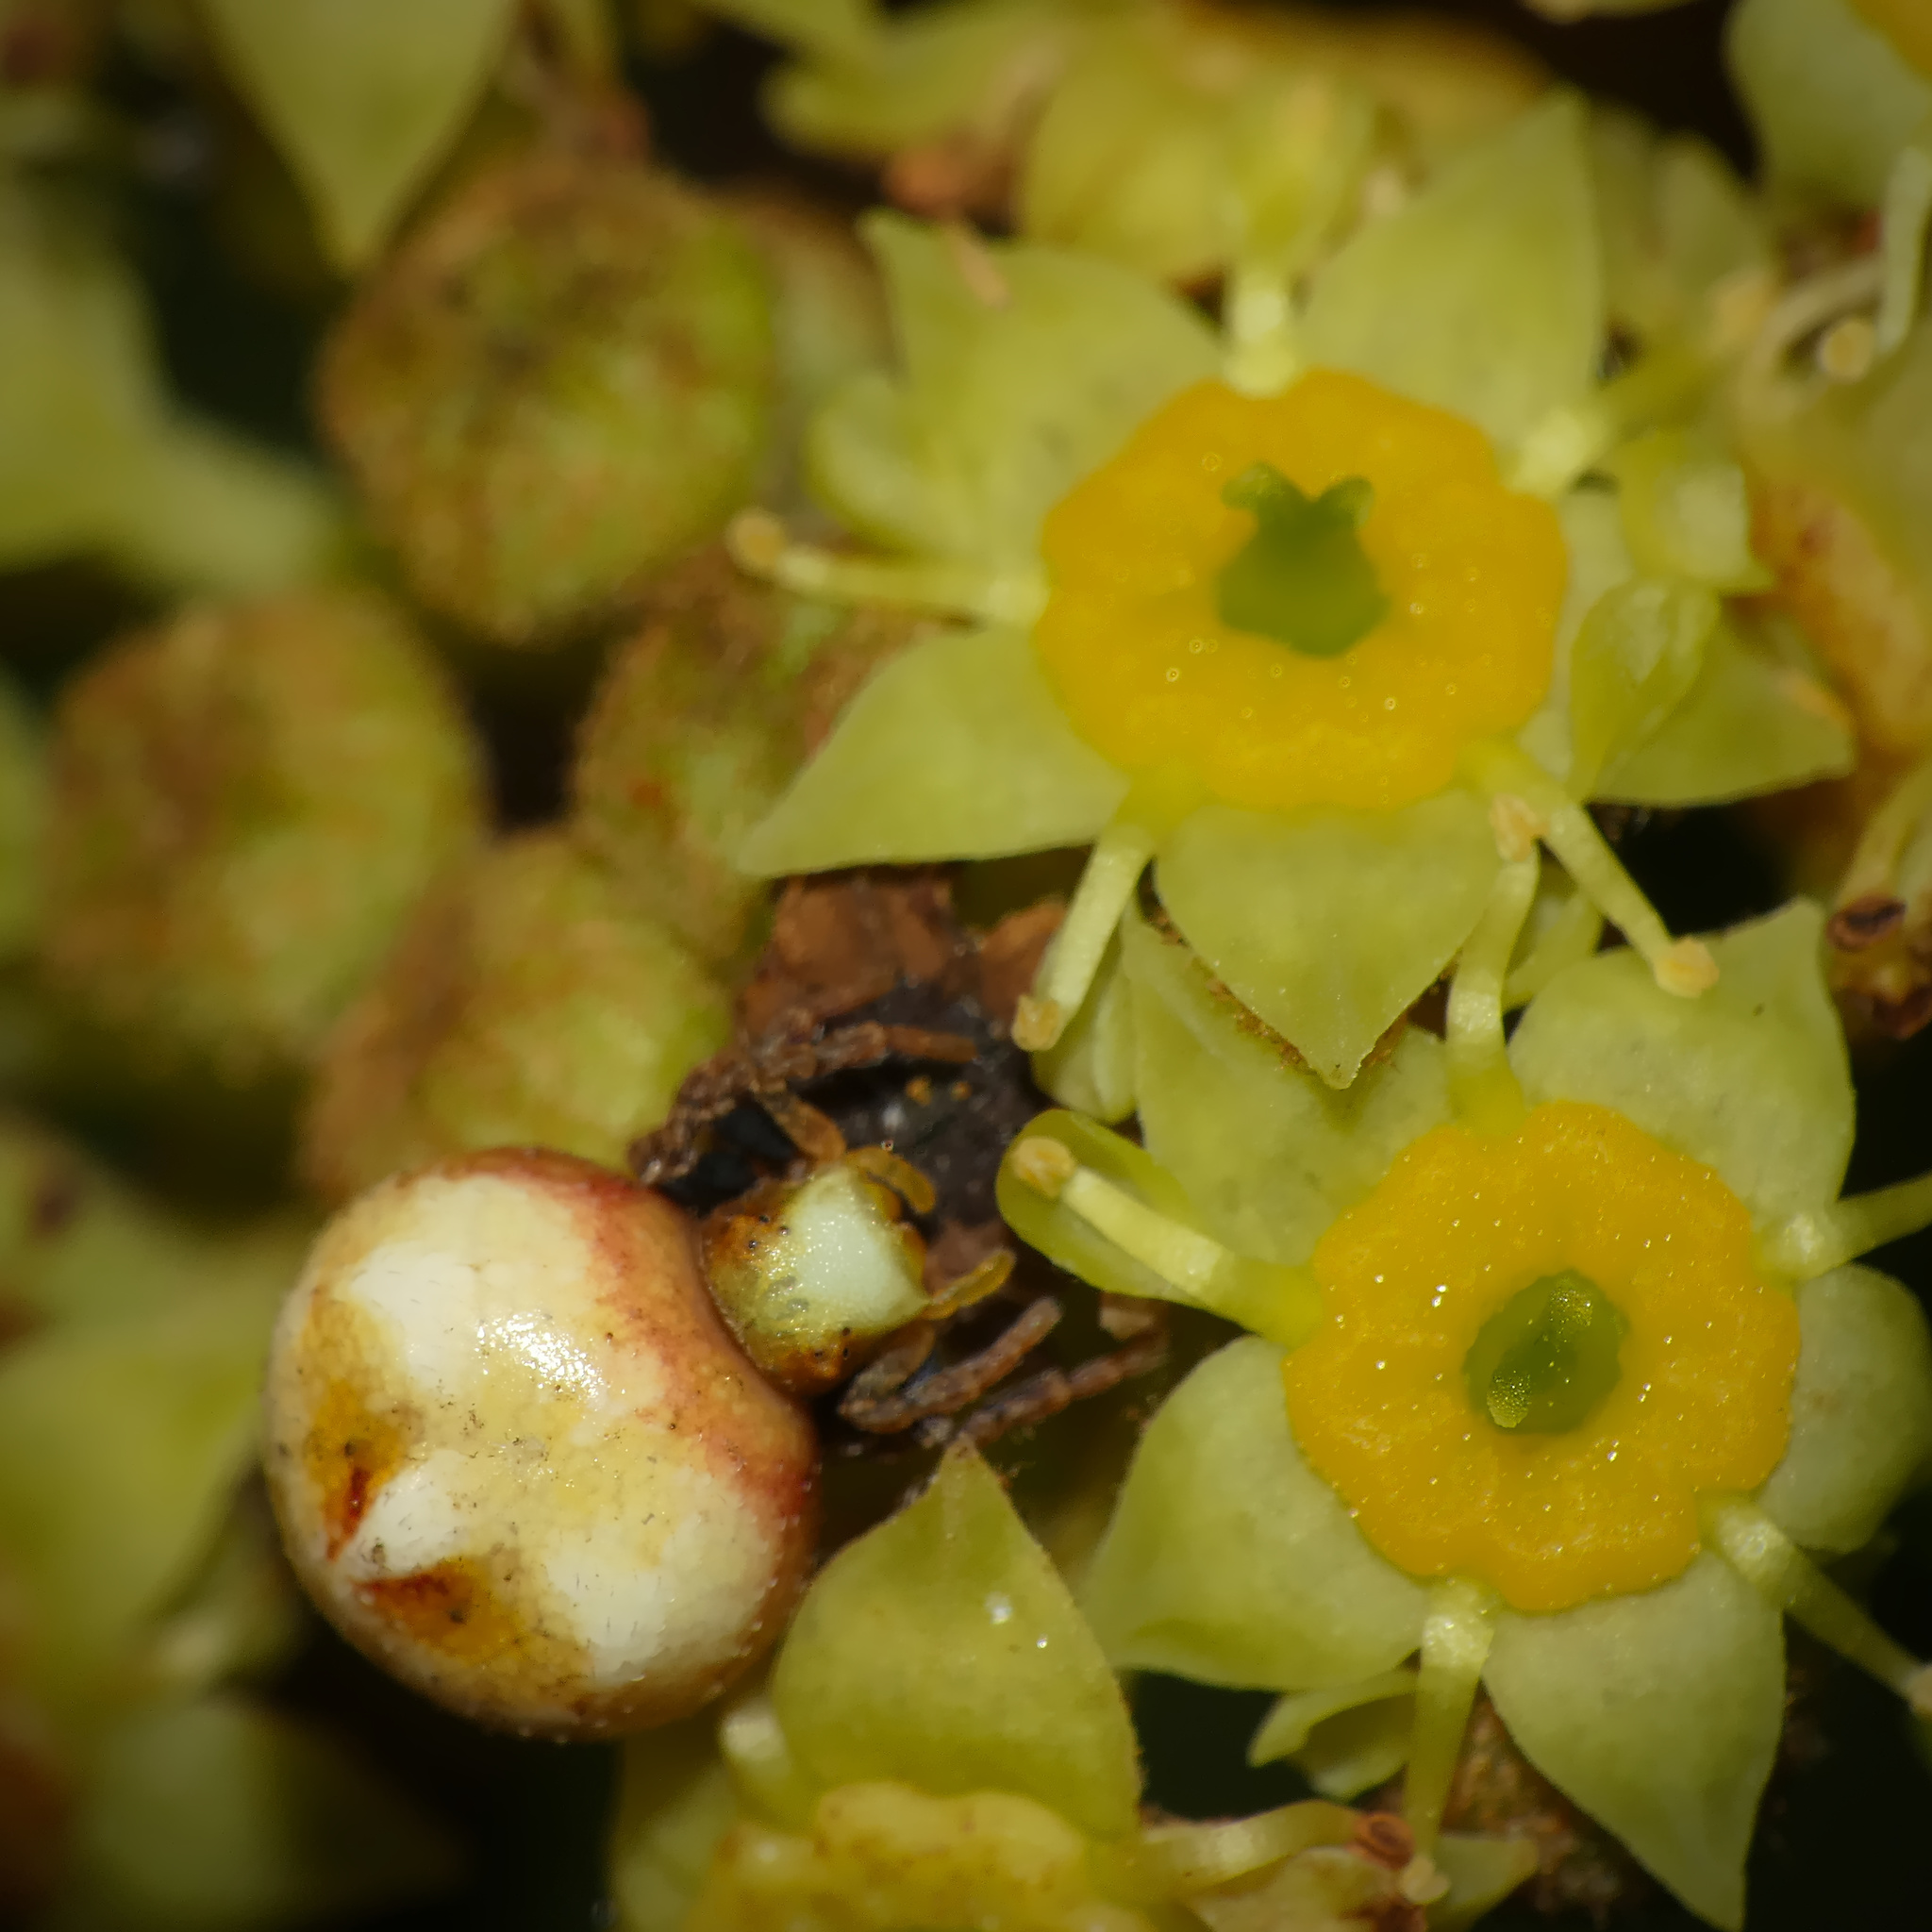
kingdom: Animalia
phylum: Arthropoda
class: Arachnida
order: Araneae
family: Thomisidae
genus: Parabomis
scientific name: Parabomis megae
